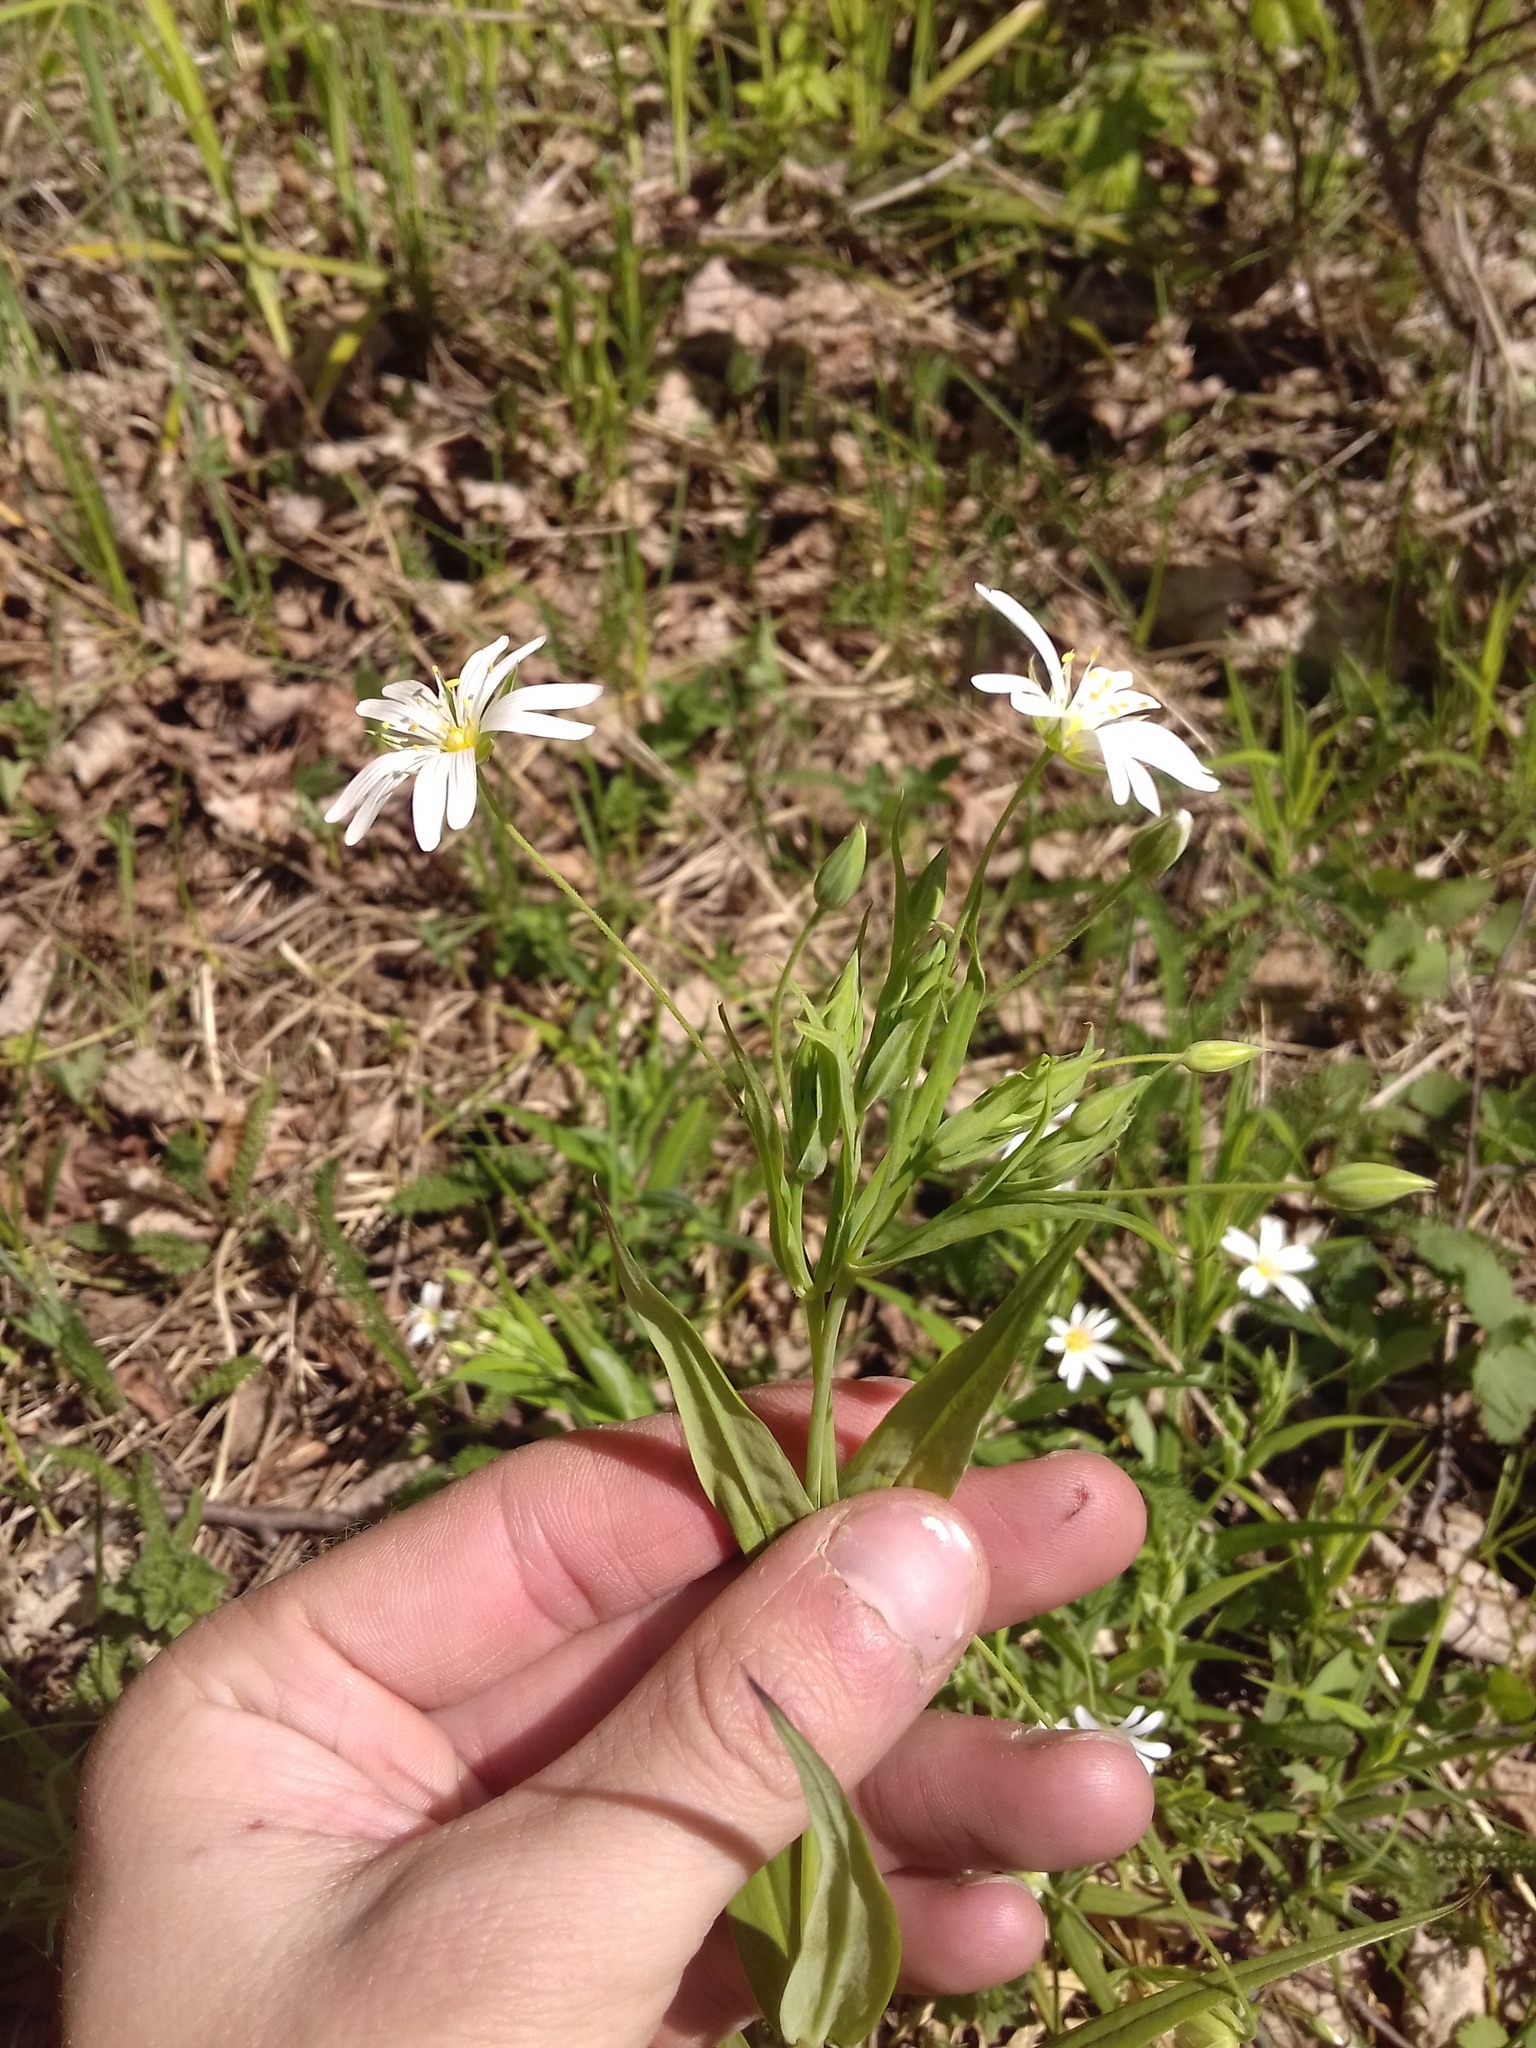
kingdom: Plantae
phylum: Tracheophyta
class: Magnoliopsida
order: Caryophyllales
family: Caryophyllaceae
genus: Rabelera
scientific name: Rabelera holostea
